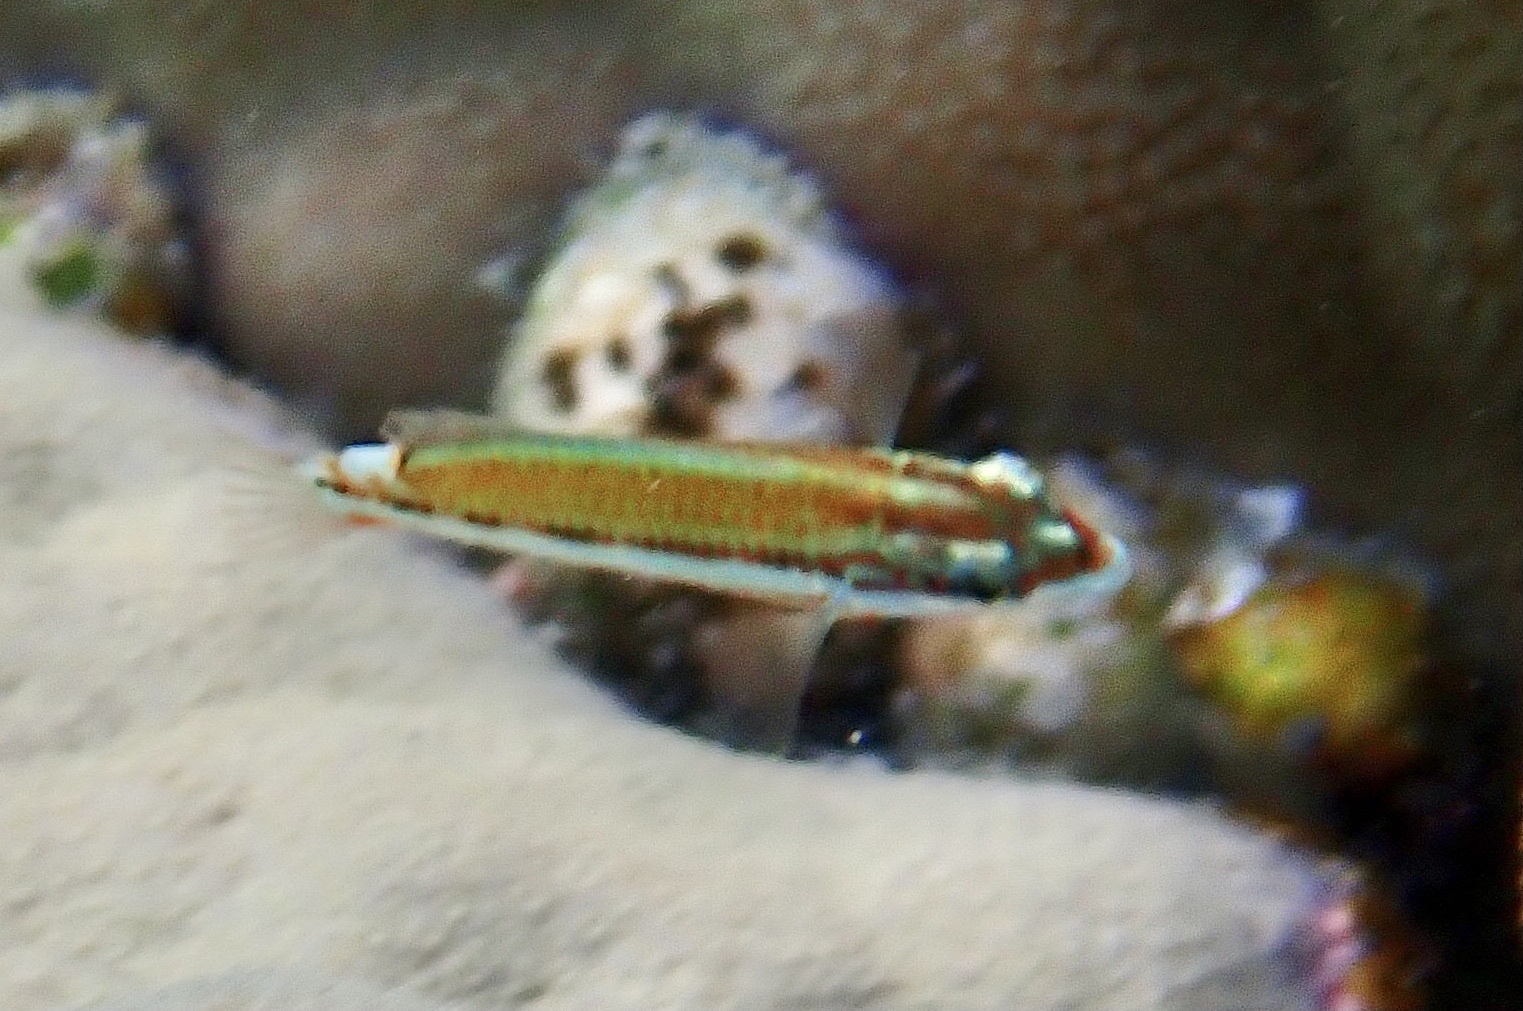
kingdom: Animalia
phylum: Chordata
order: Perciformes
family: Labridae
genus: Thalassoma
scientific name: Thalassoma rueppellii
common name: Klunzinger's wrasse
